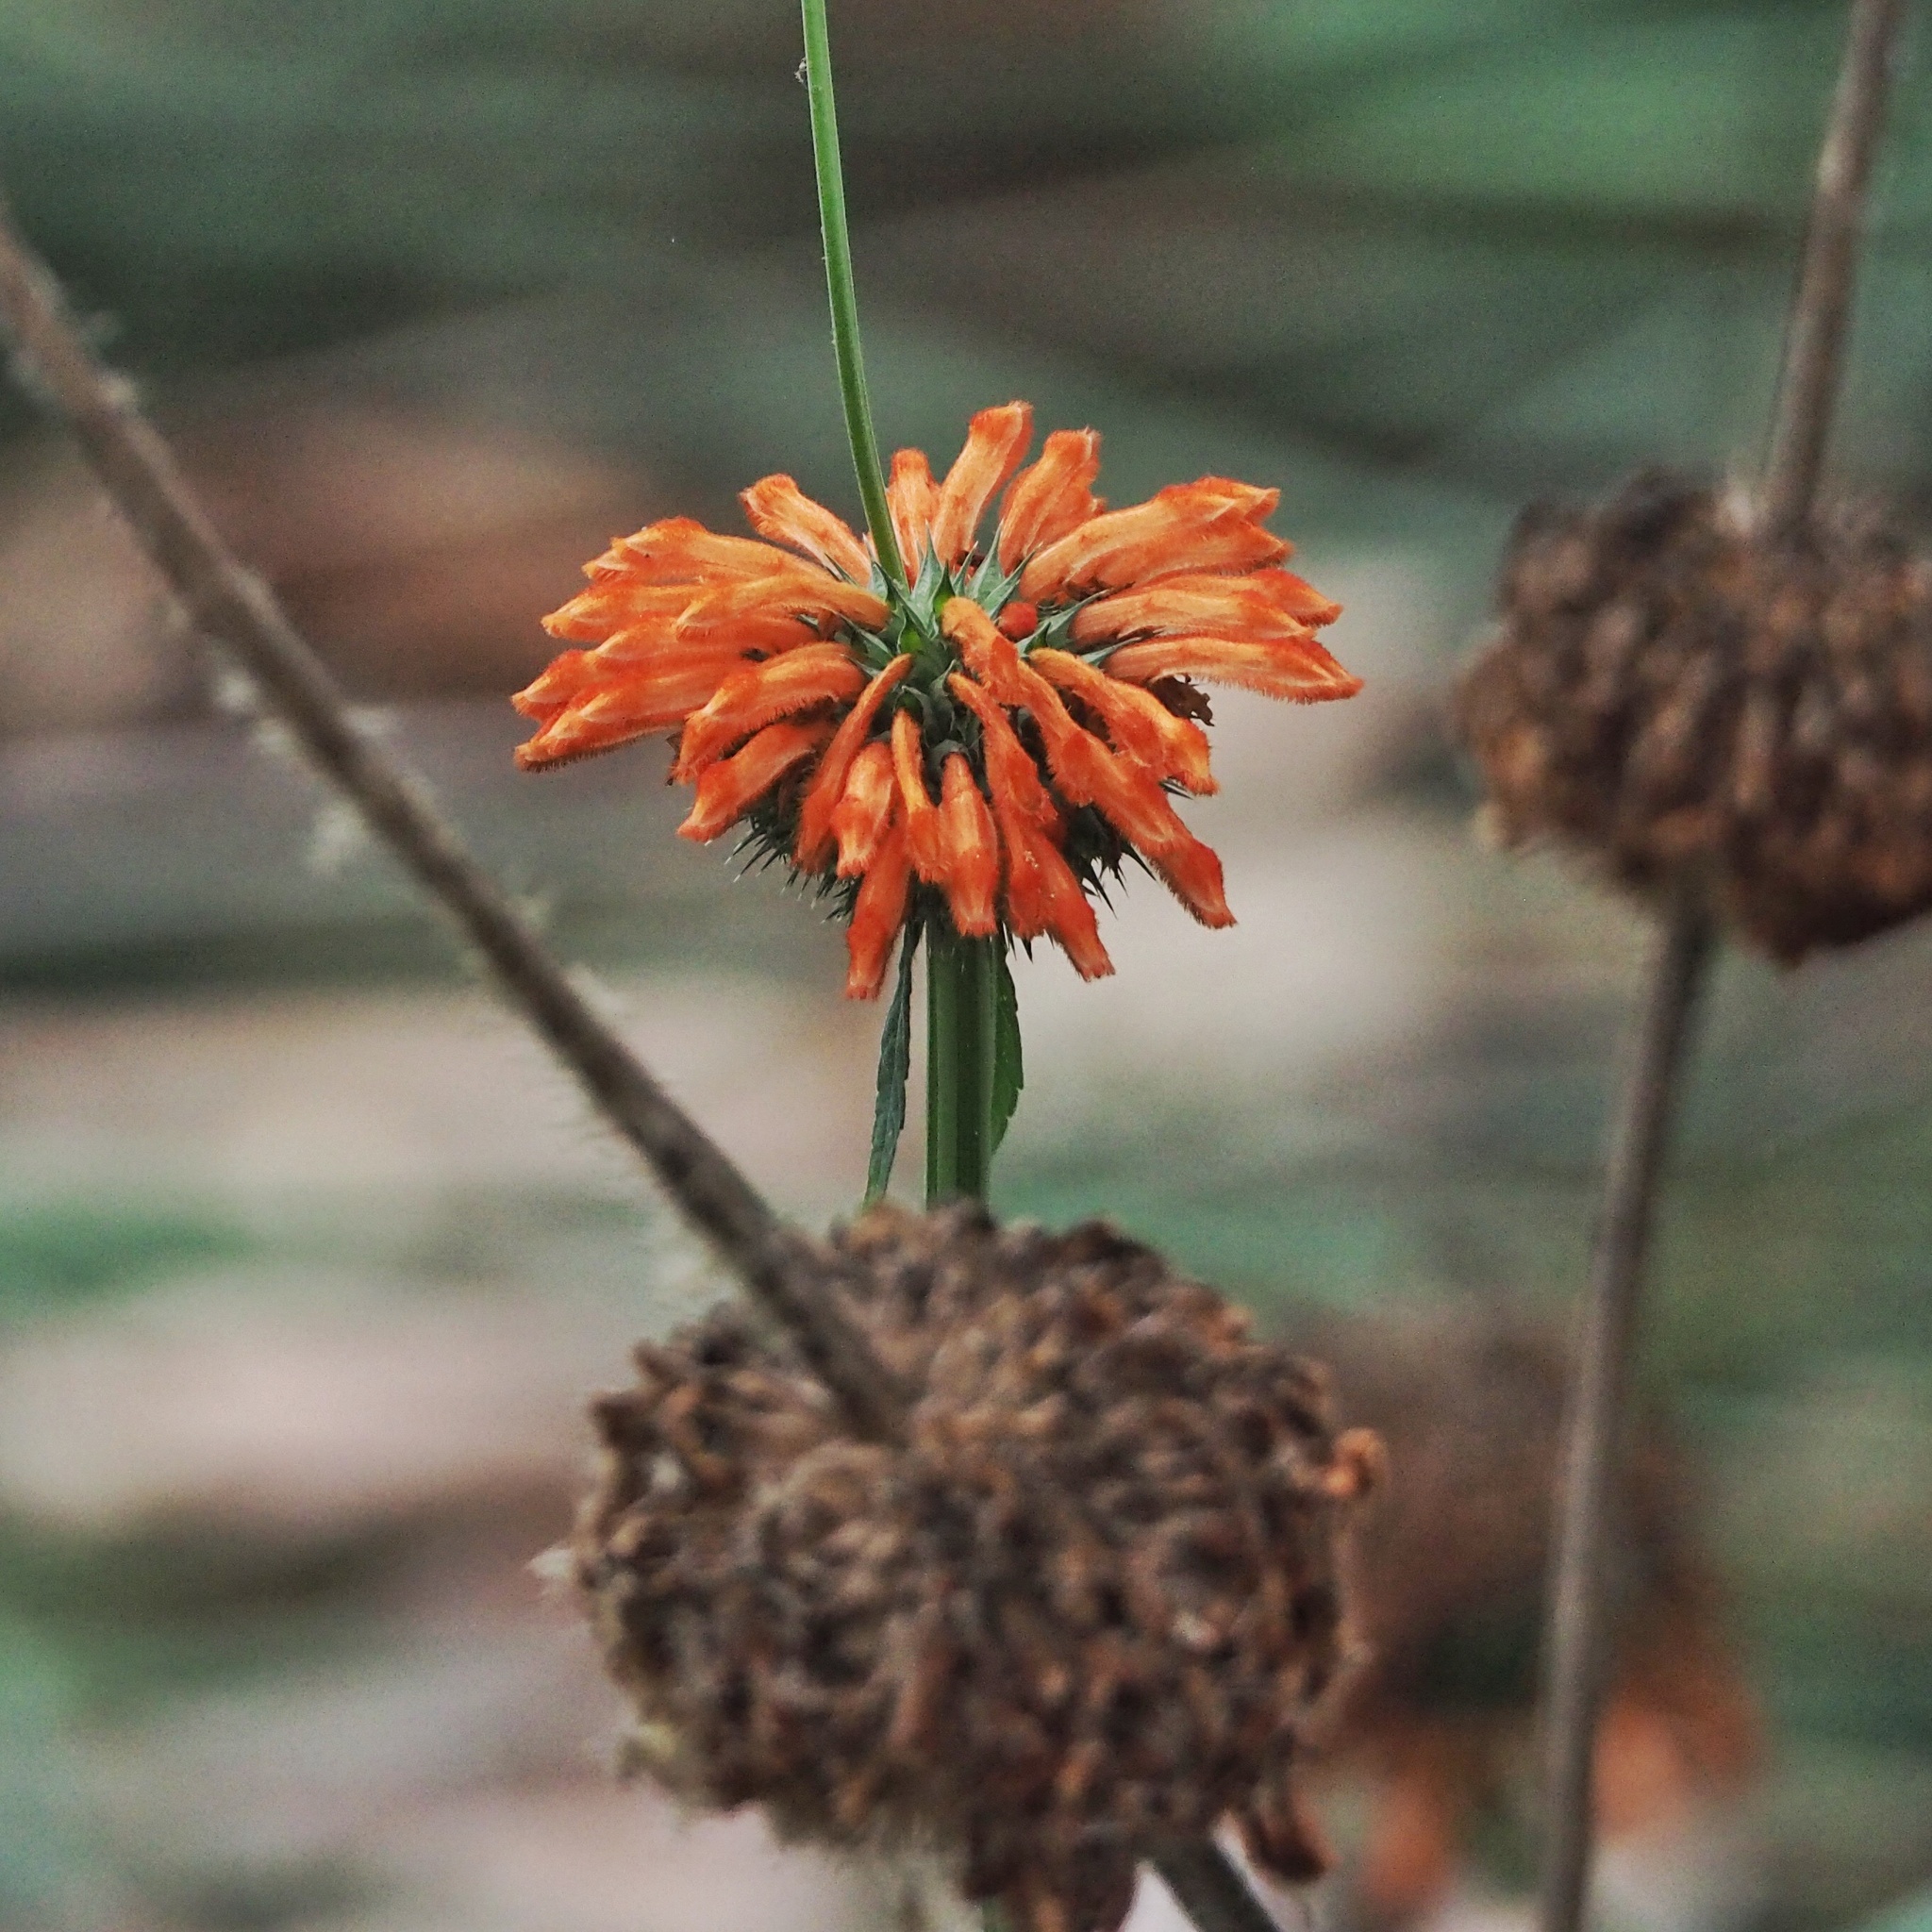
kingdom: Plantae
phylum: Tracheophyta
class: Magnoliopsida
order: Lamiales
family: Lamiaceae
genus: Leonotis
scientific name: Leonotis nepetifolia
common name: Christmas candlestick
